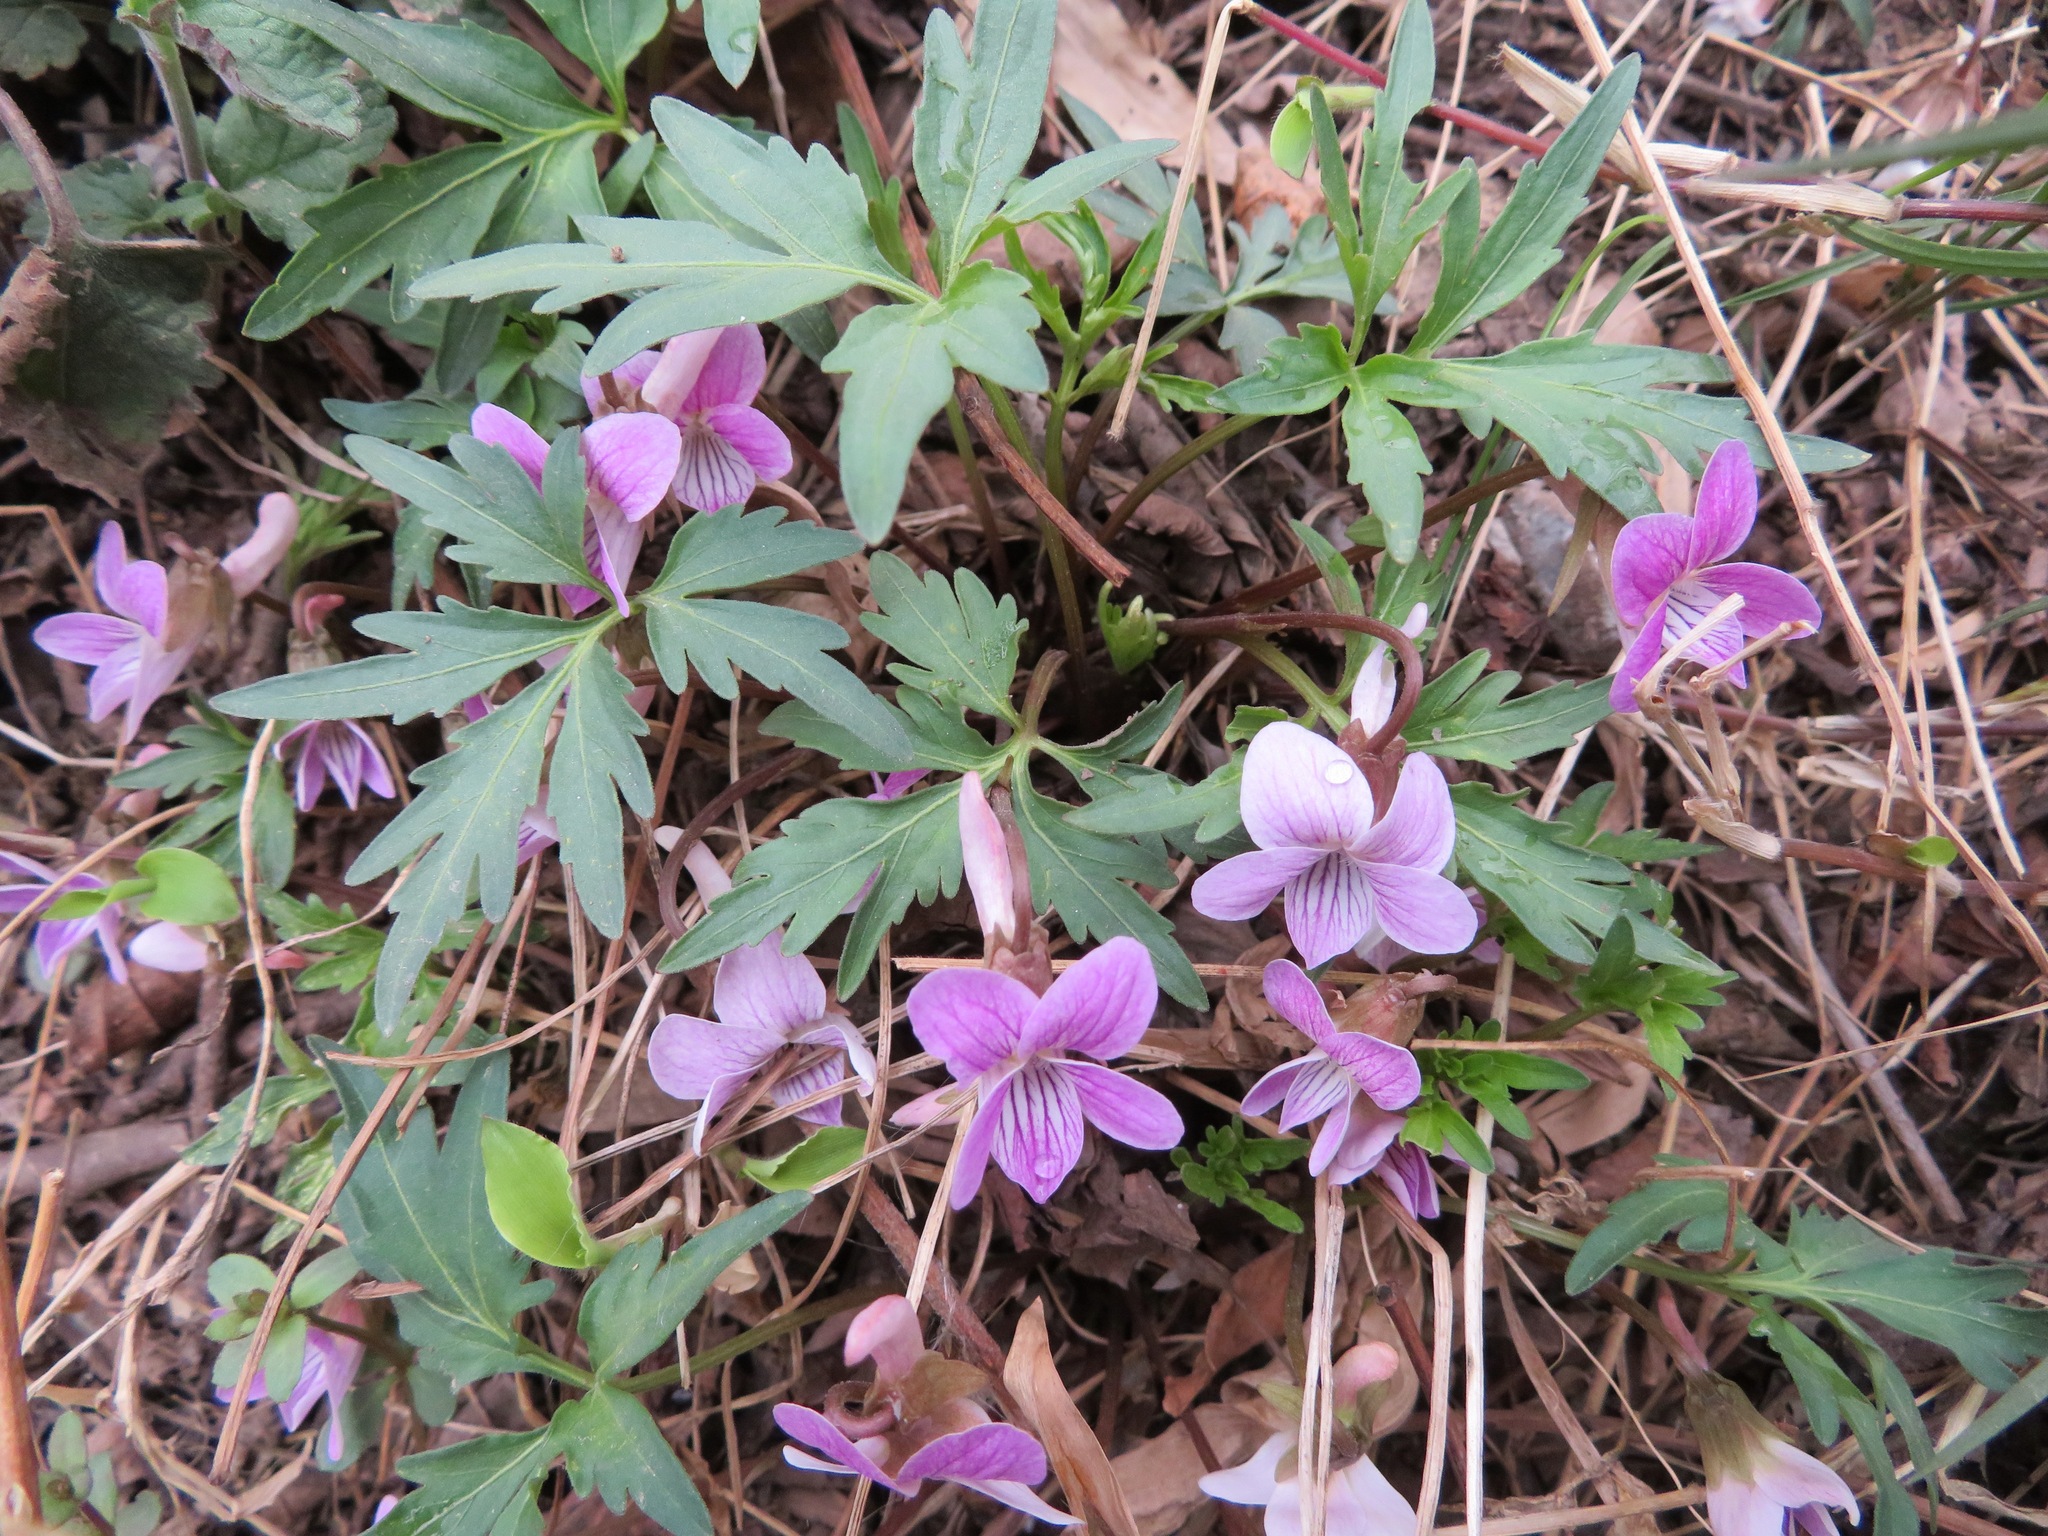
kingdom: Plantae
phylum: Tracheophyta
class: Magnoliopsida
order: Malpighiales
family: Violaceae
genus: Viola
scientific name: Viola multifida
